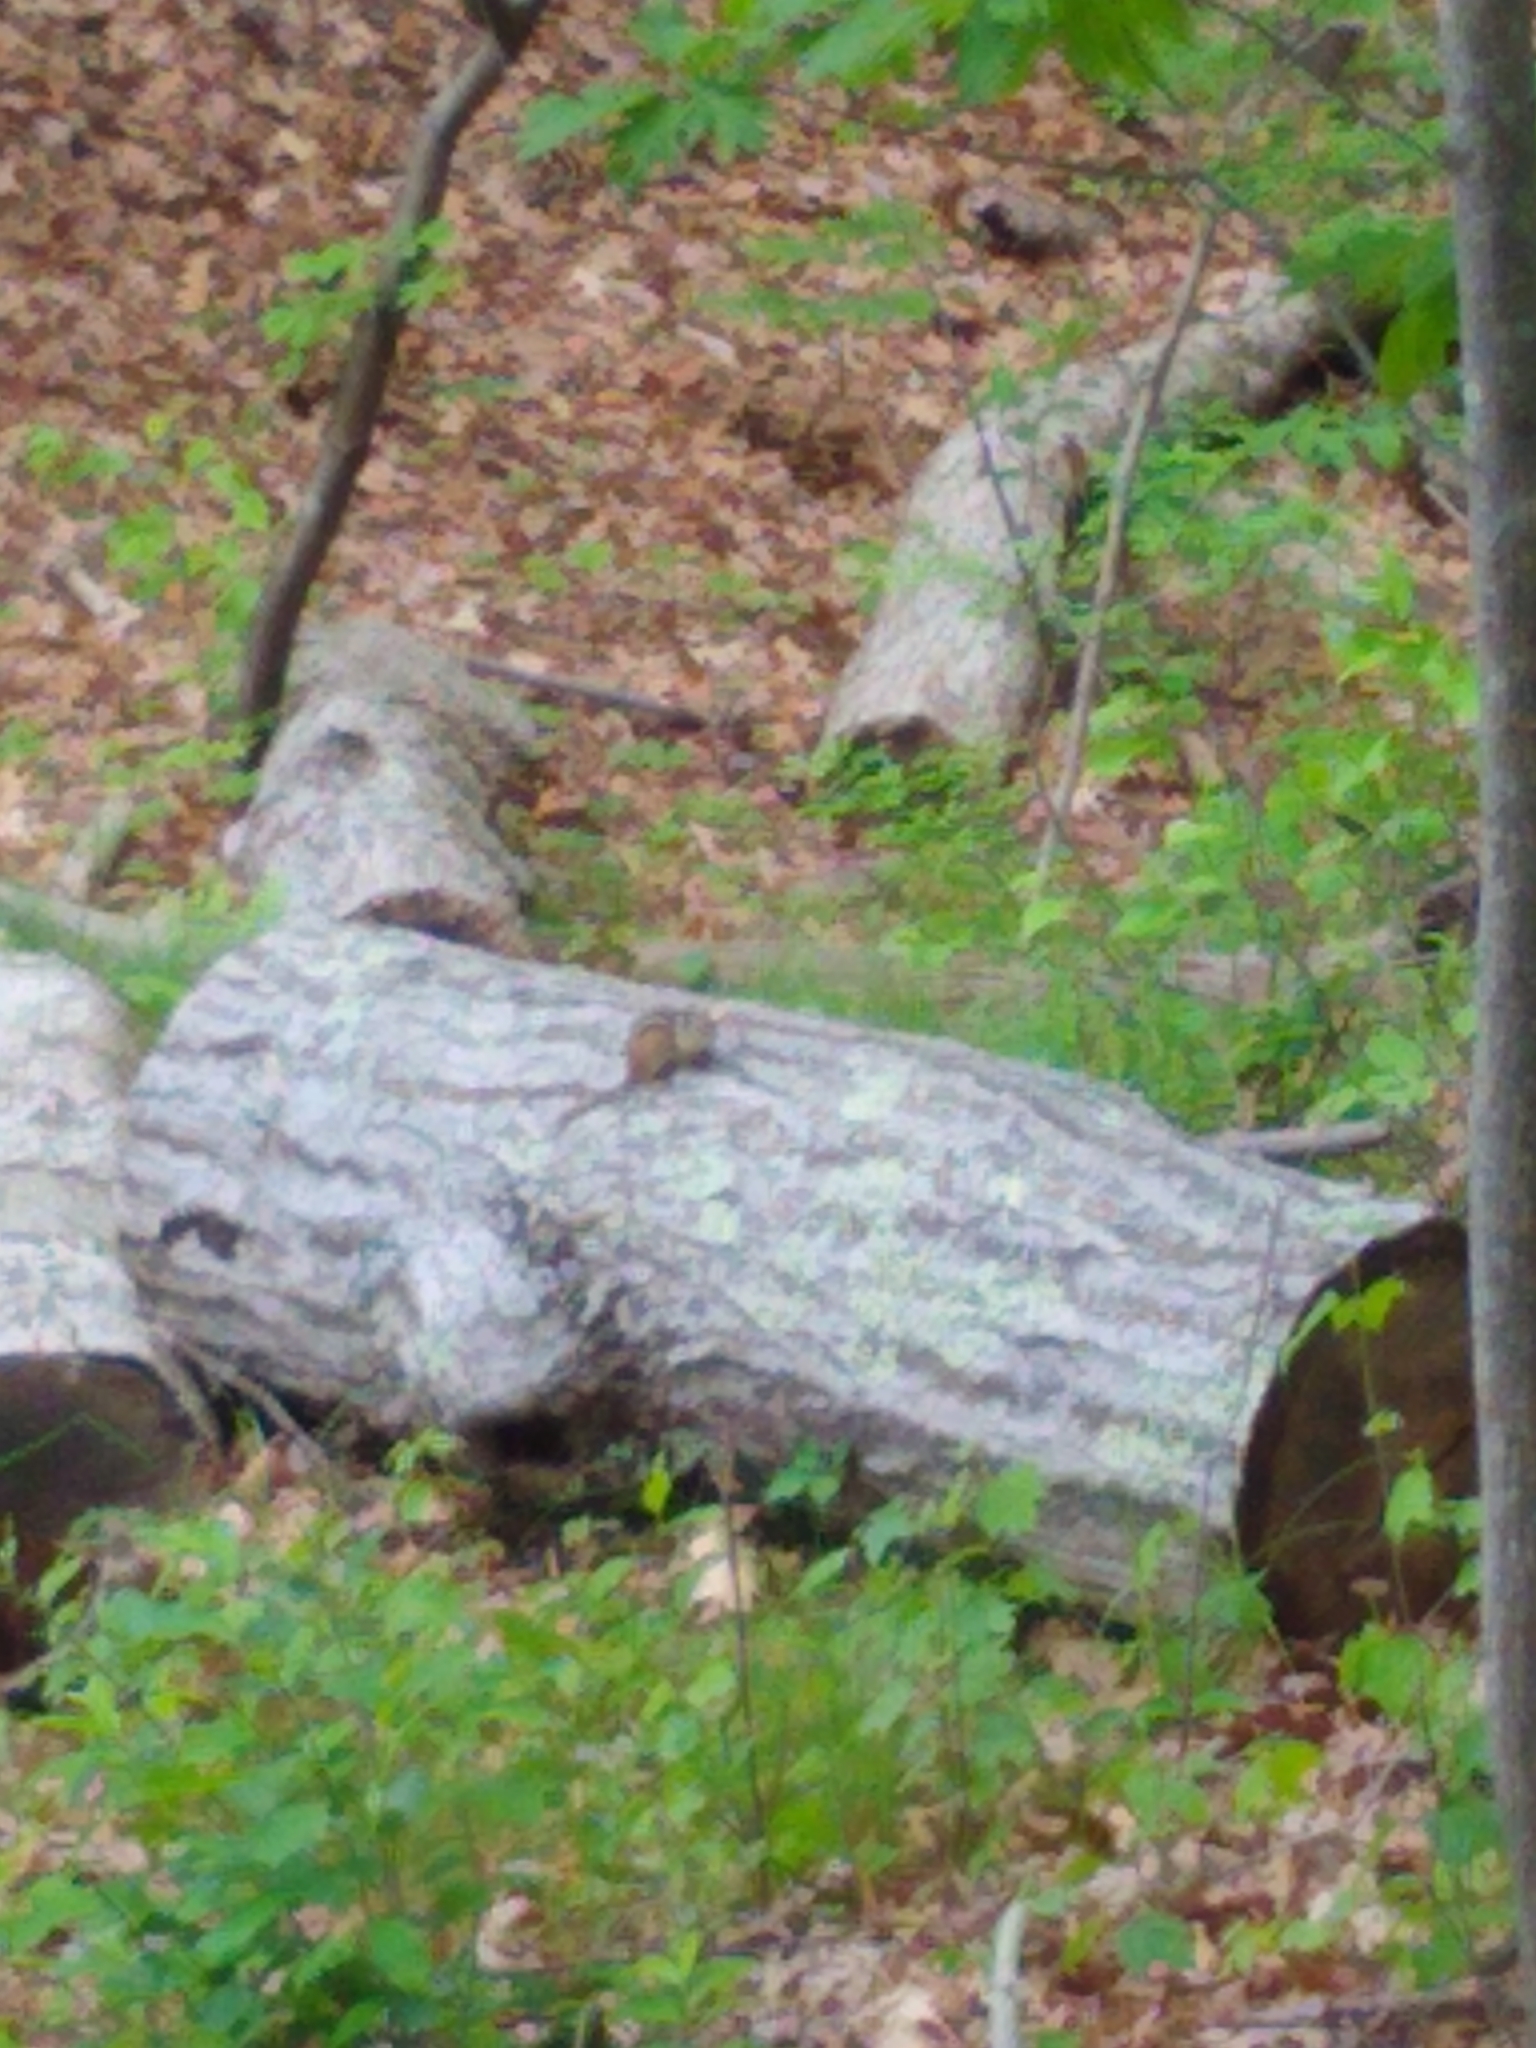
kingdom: Animalia
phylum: Chordata
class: Mammalia
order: Rodentia
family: Sciuridae
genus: Tamias
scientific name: Tamias striatus
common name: Eastern chipmunk
